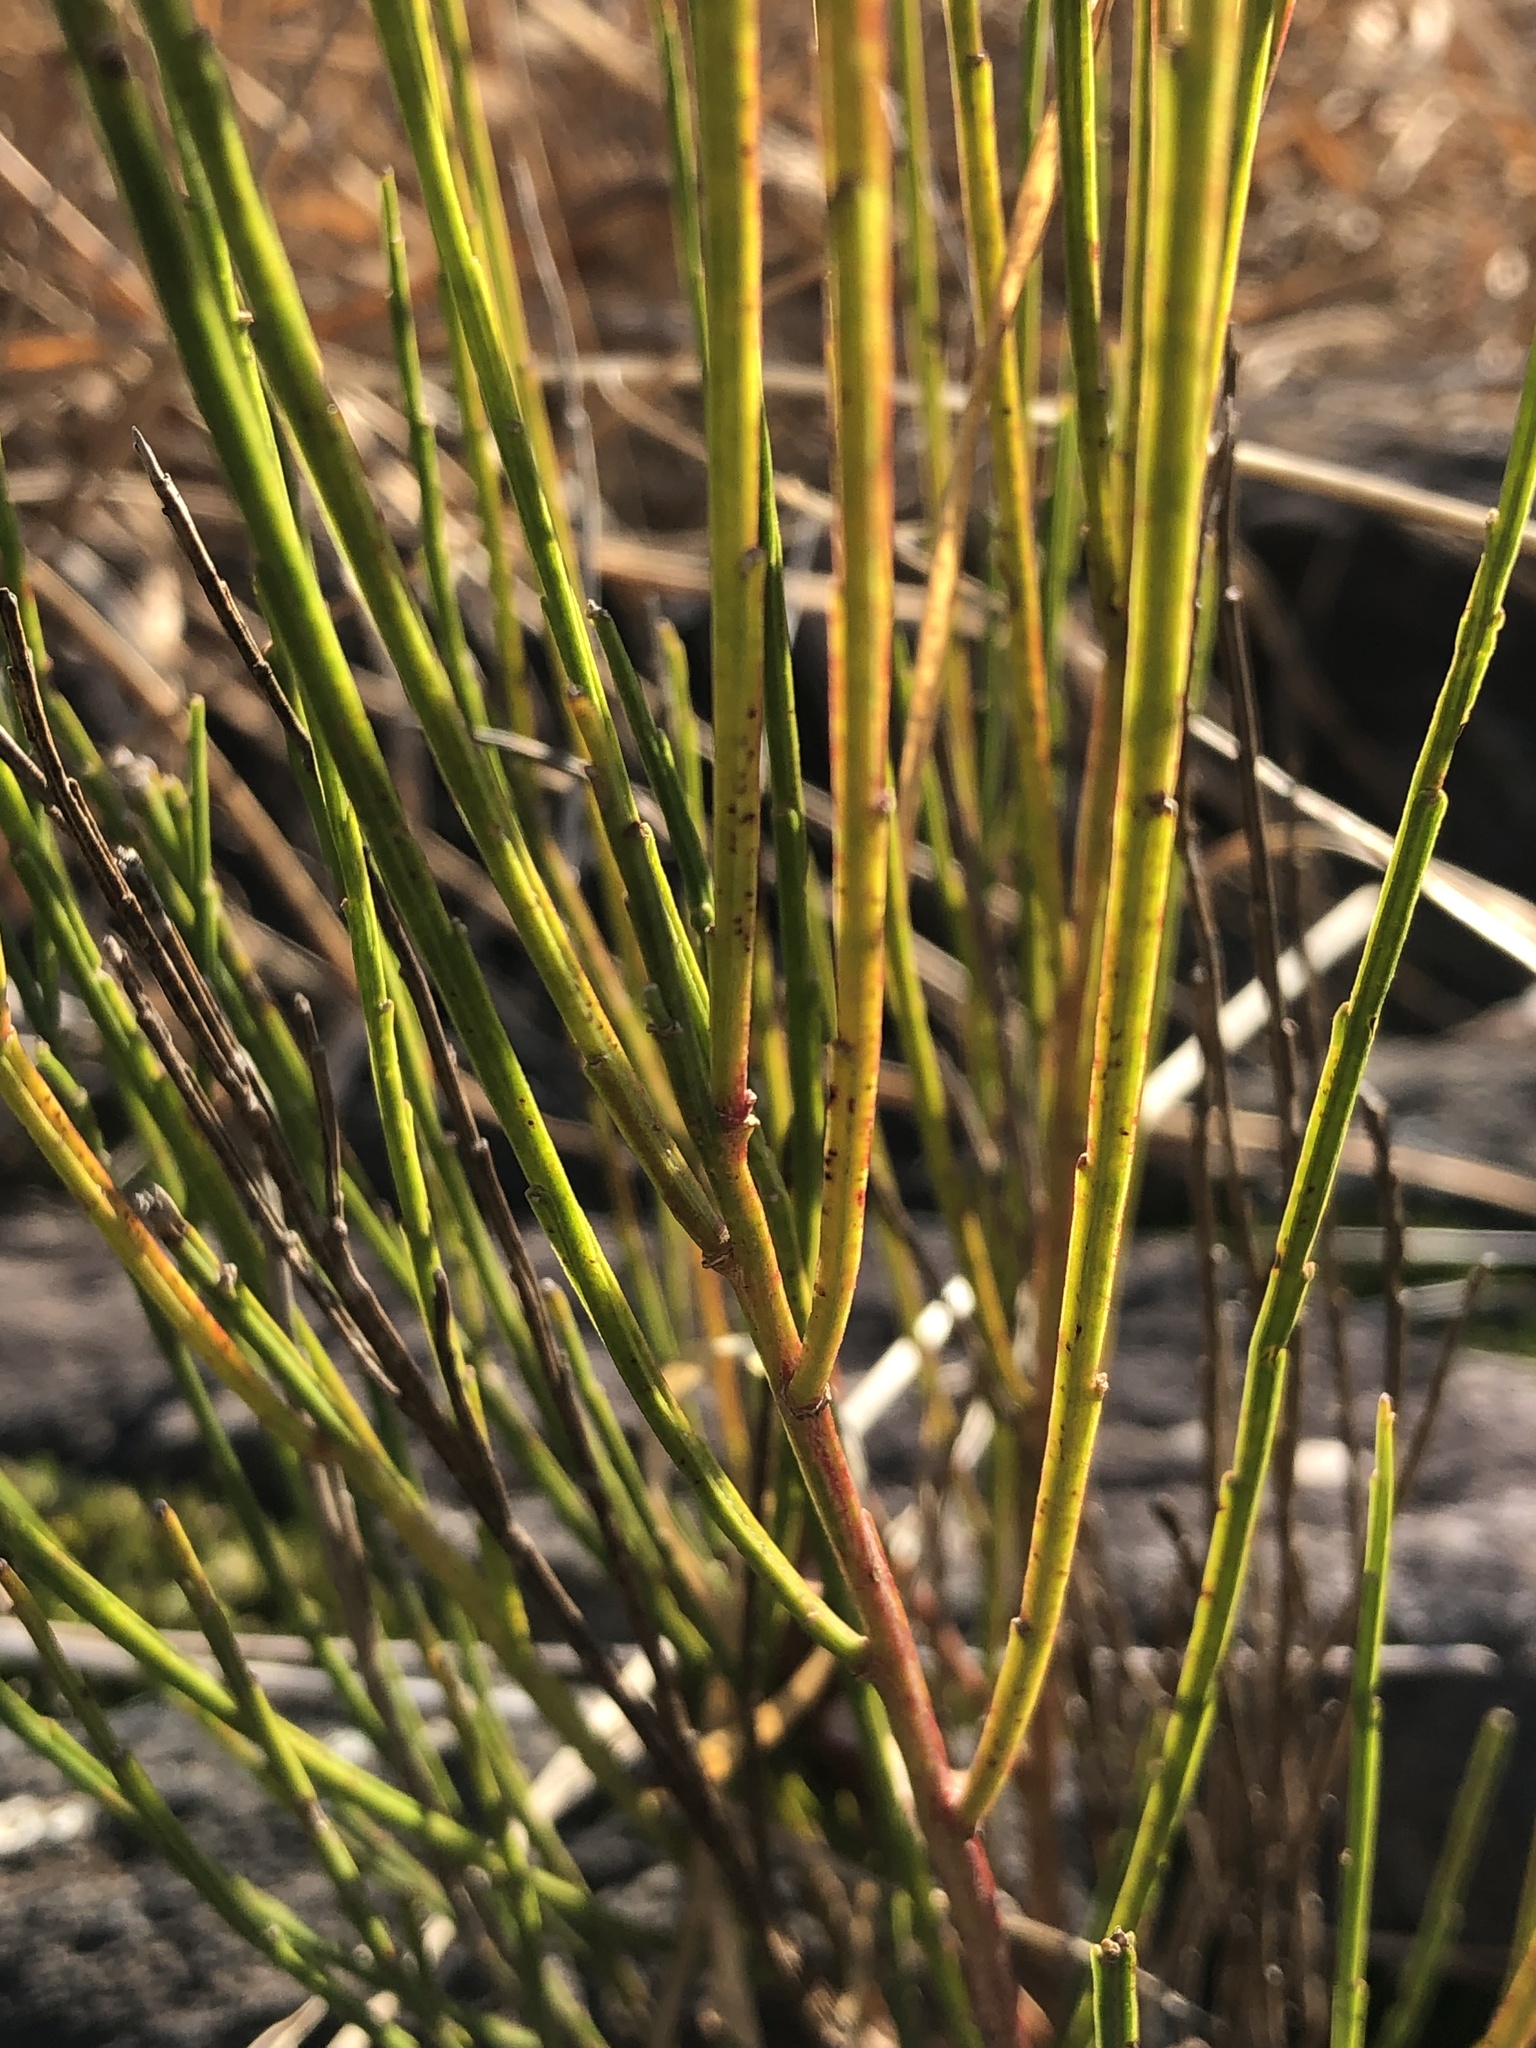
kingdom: Plantae
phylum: Tracheophyta
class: Magnoliopsida
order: Fabales
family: Fabaceae
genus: Cytisus
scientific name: Cytisus scoparius
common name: Scotch broom
